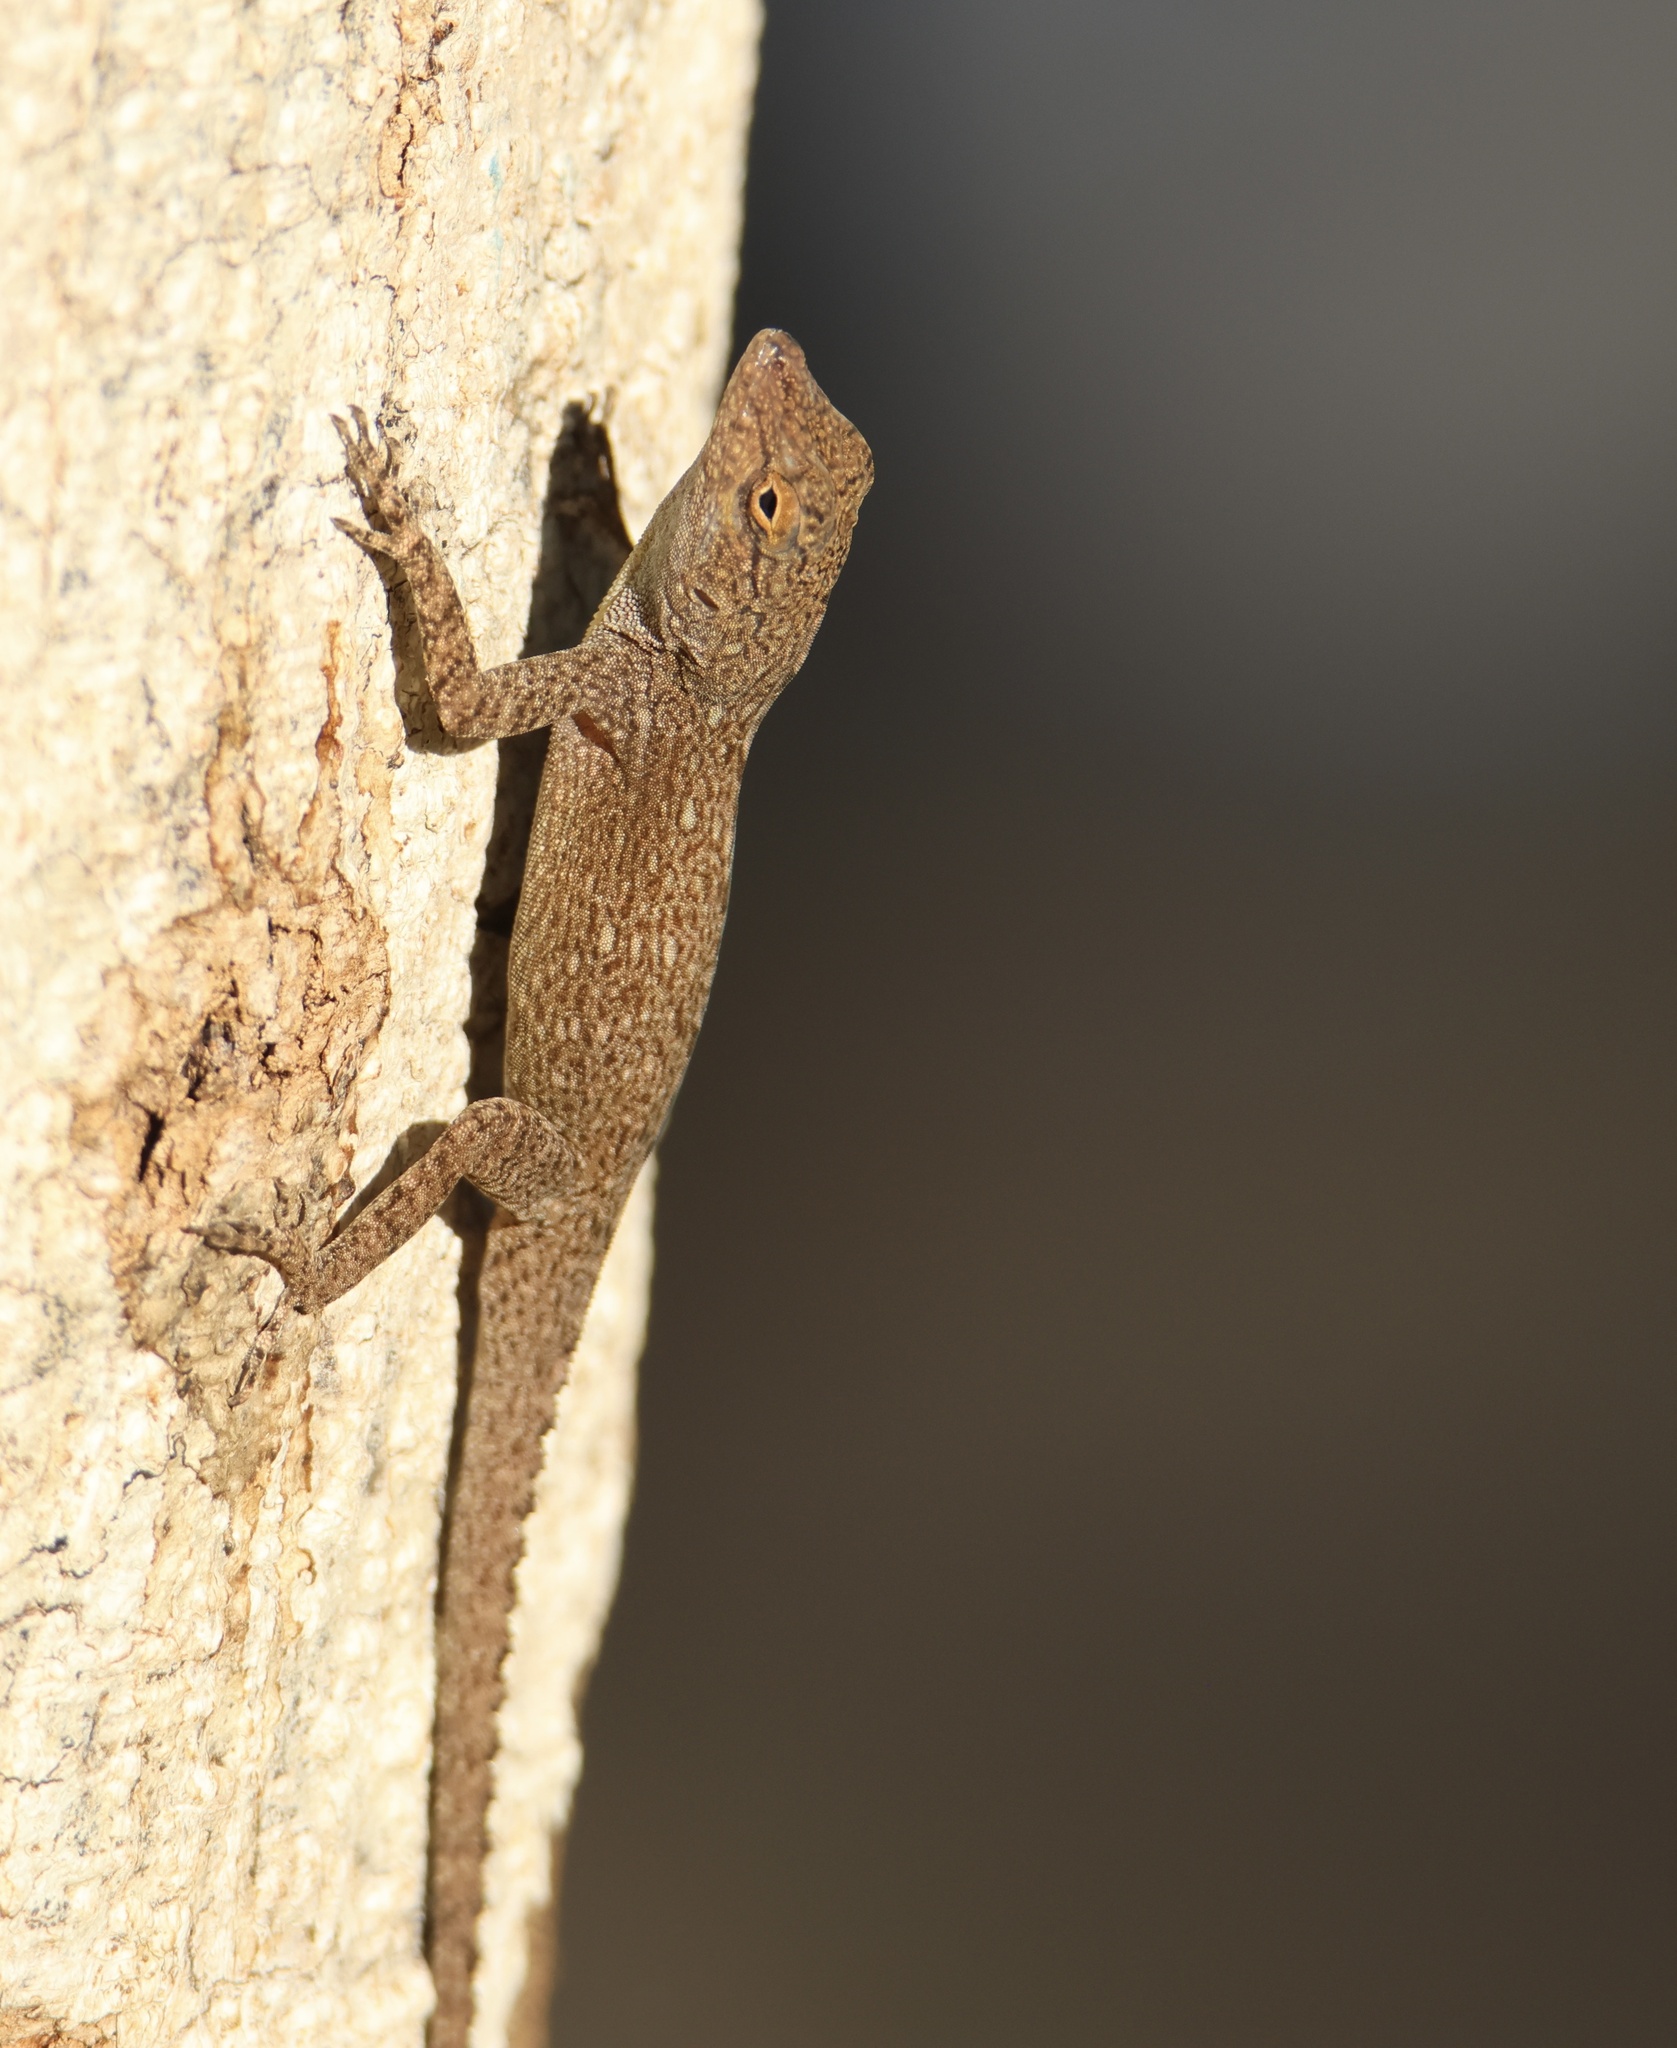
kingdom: Animalia
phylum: Chordata
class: Squamata
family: Dactyloidae
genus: Anolis
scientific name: Anolis distichus
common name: Bark anole
